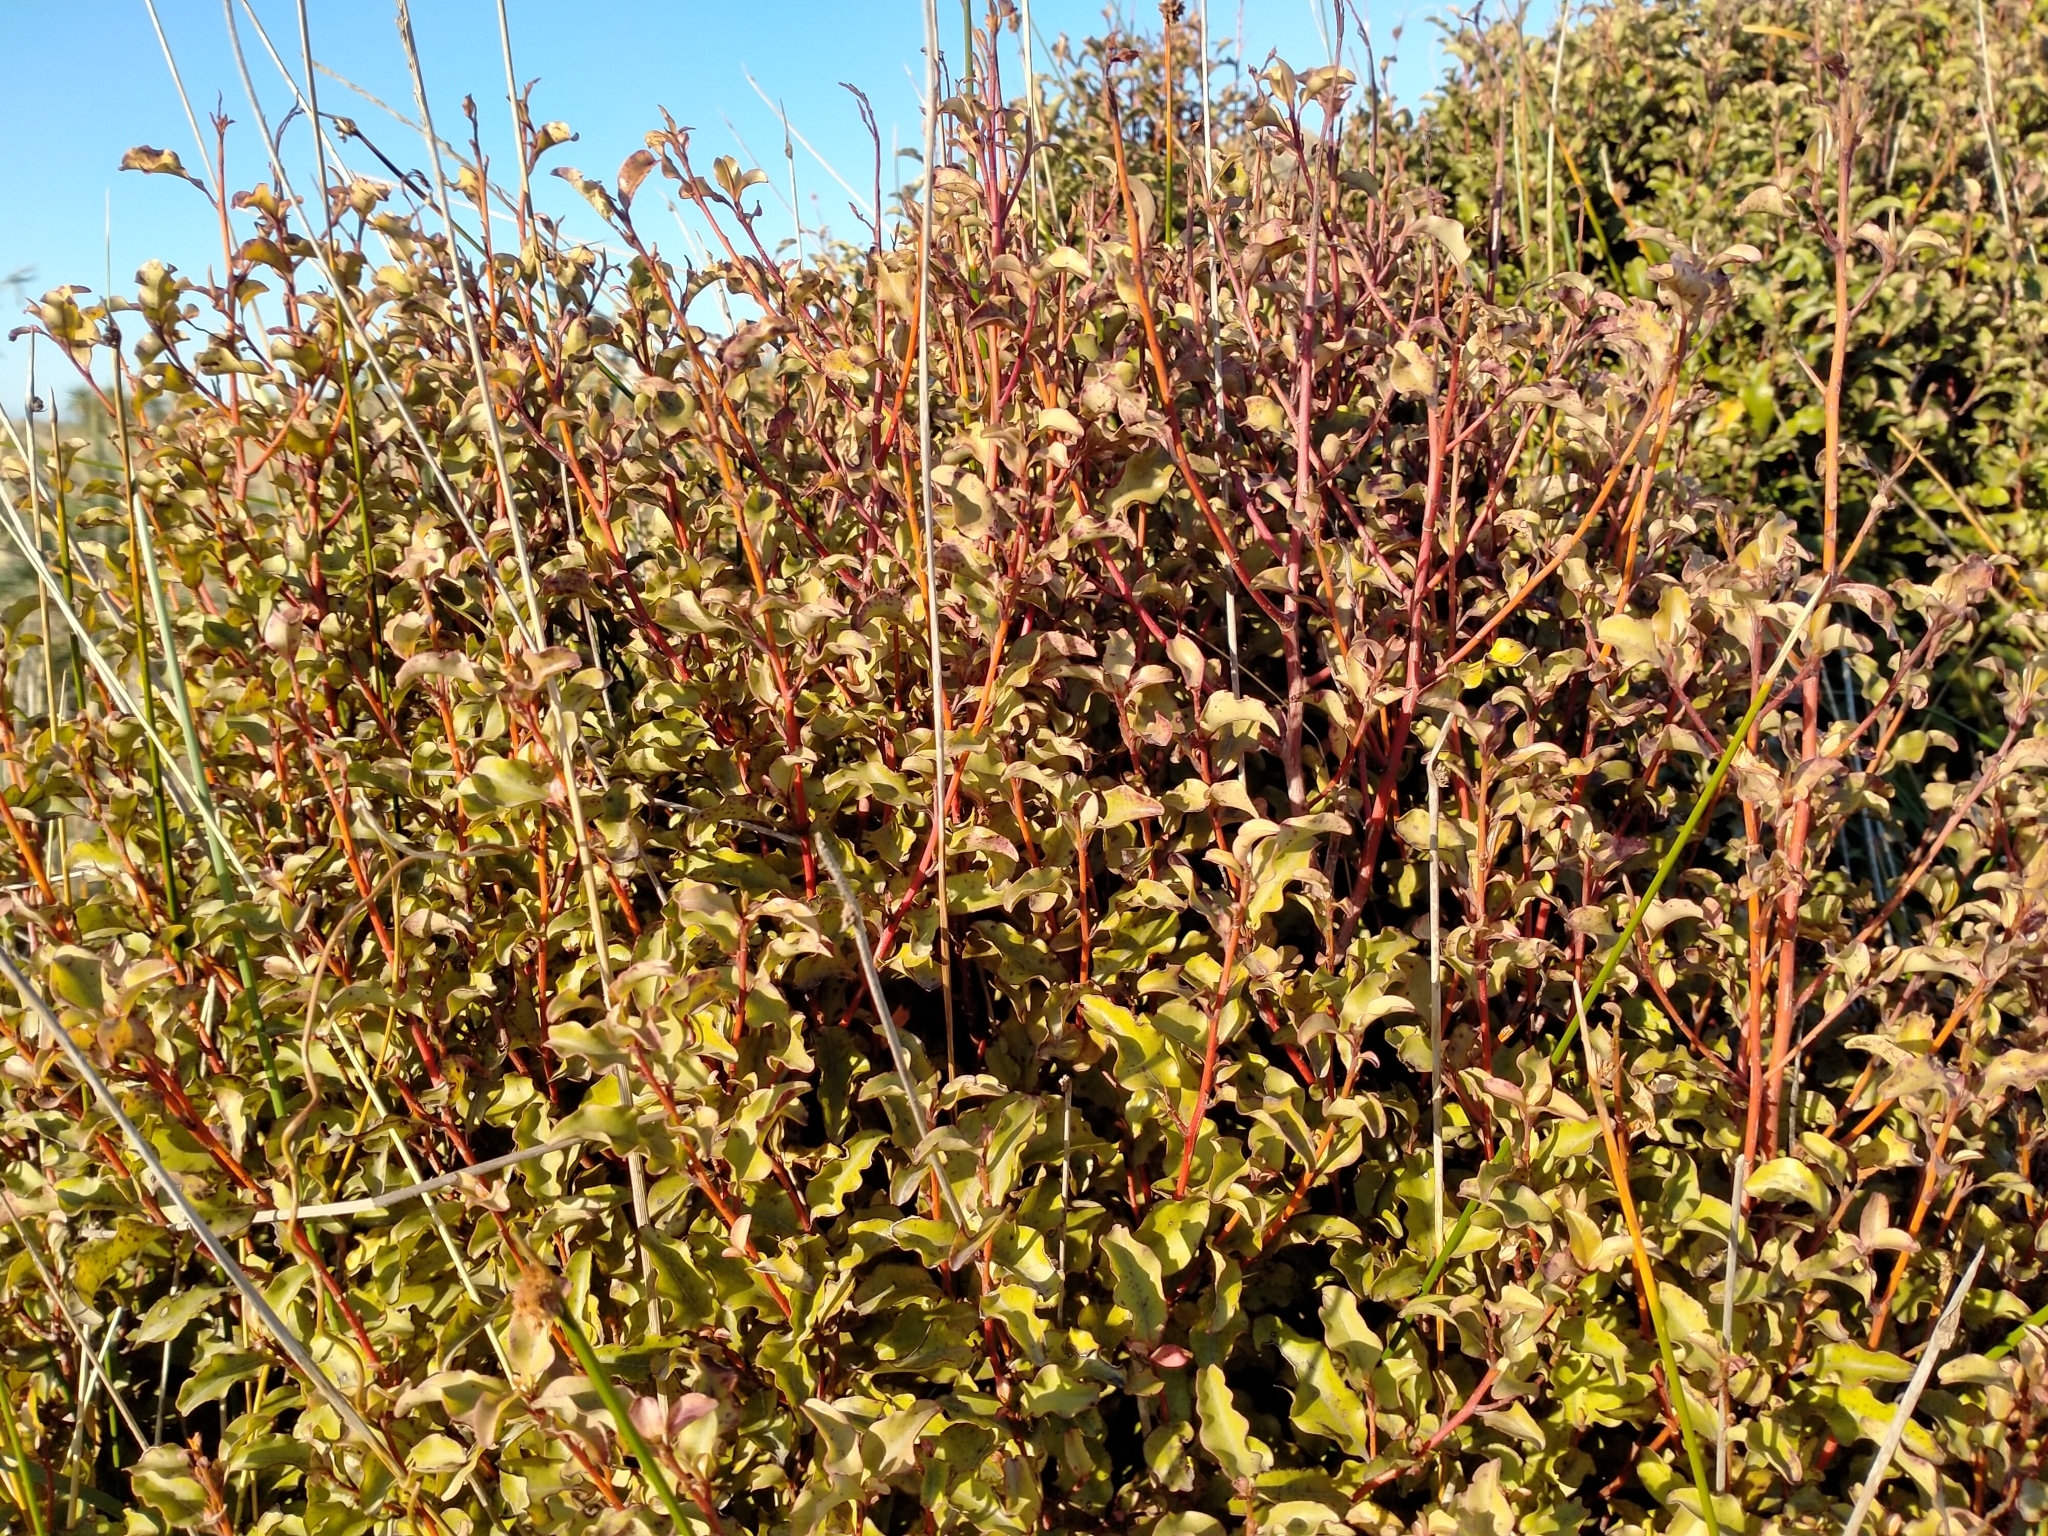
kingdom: Plantae
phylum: Tracheophyta
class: Magnoliopsida
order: Ericales
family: Primulaceae
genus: Myrsine
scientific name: Myrsine australis
